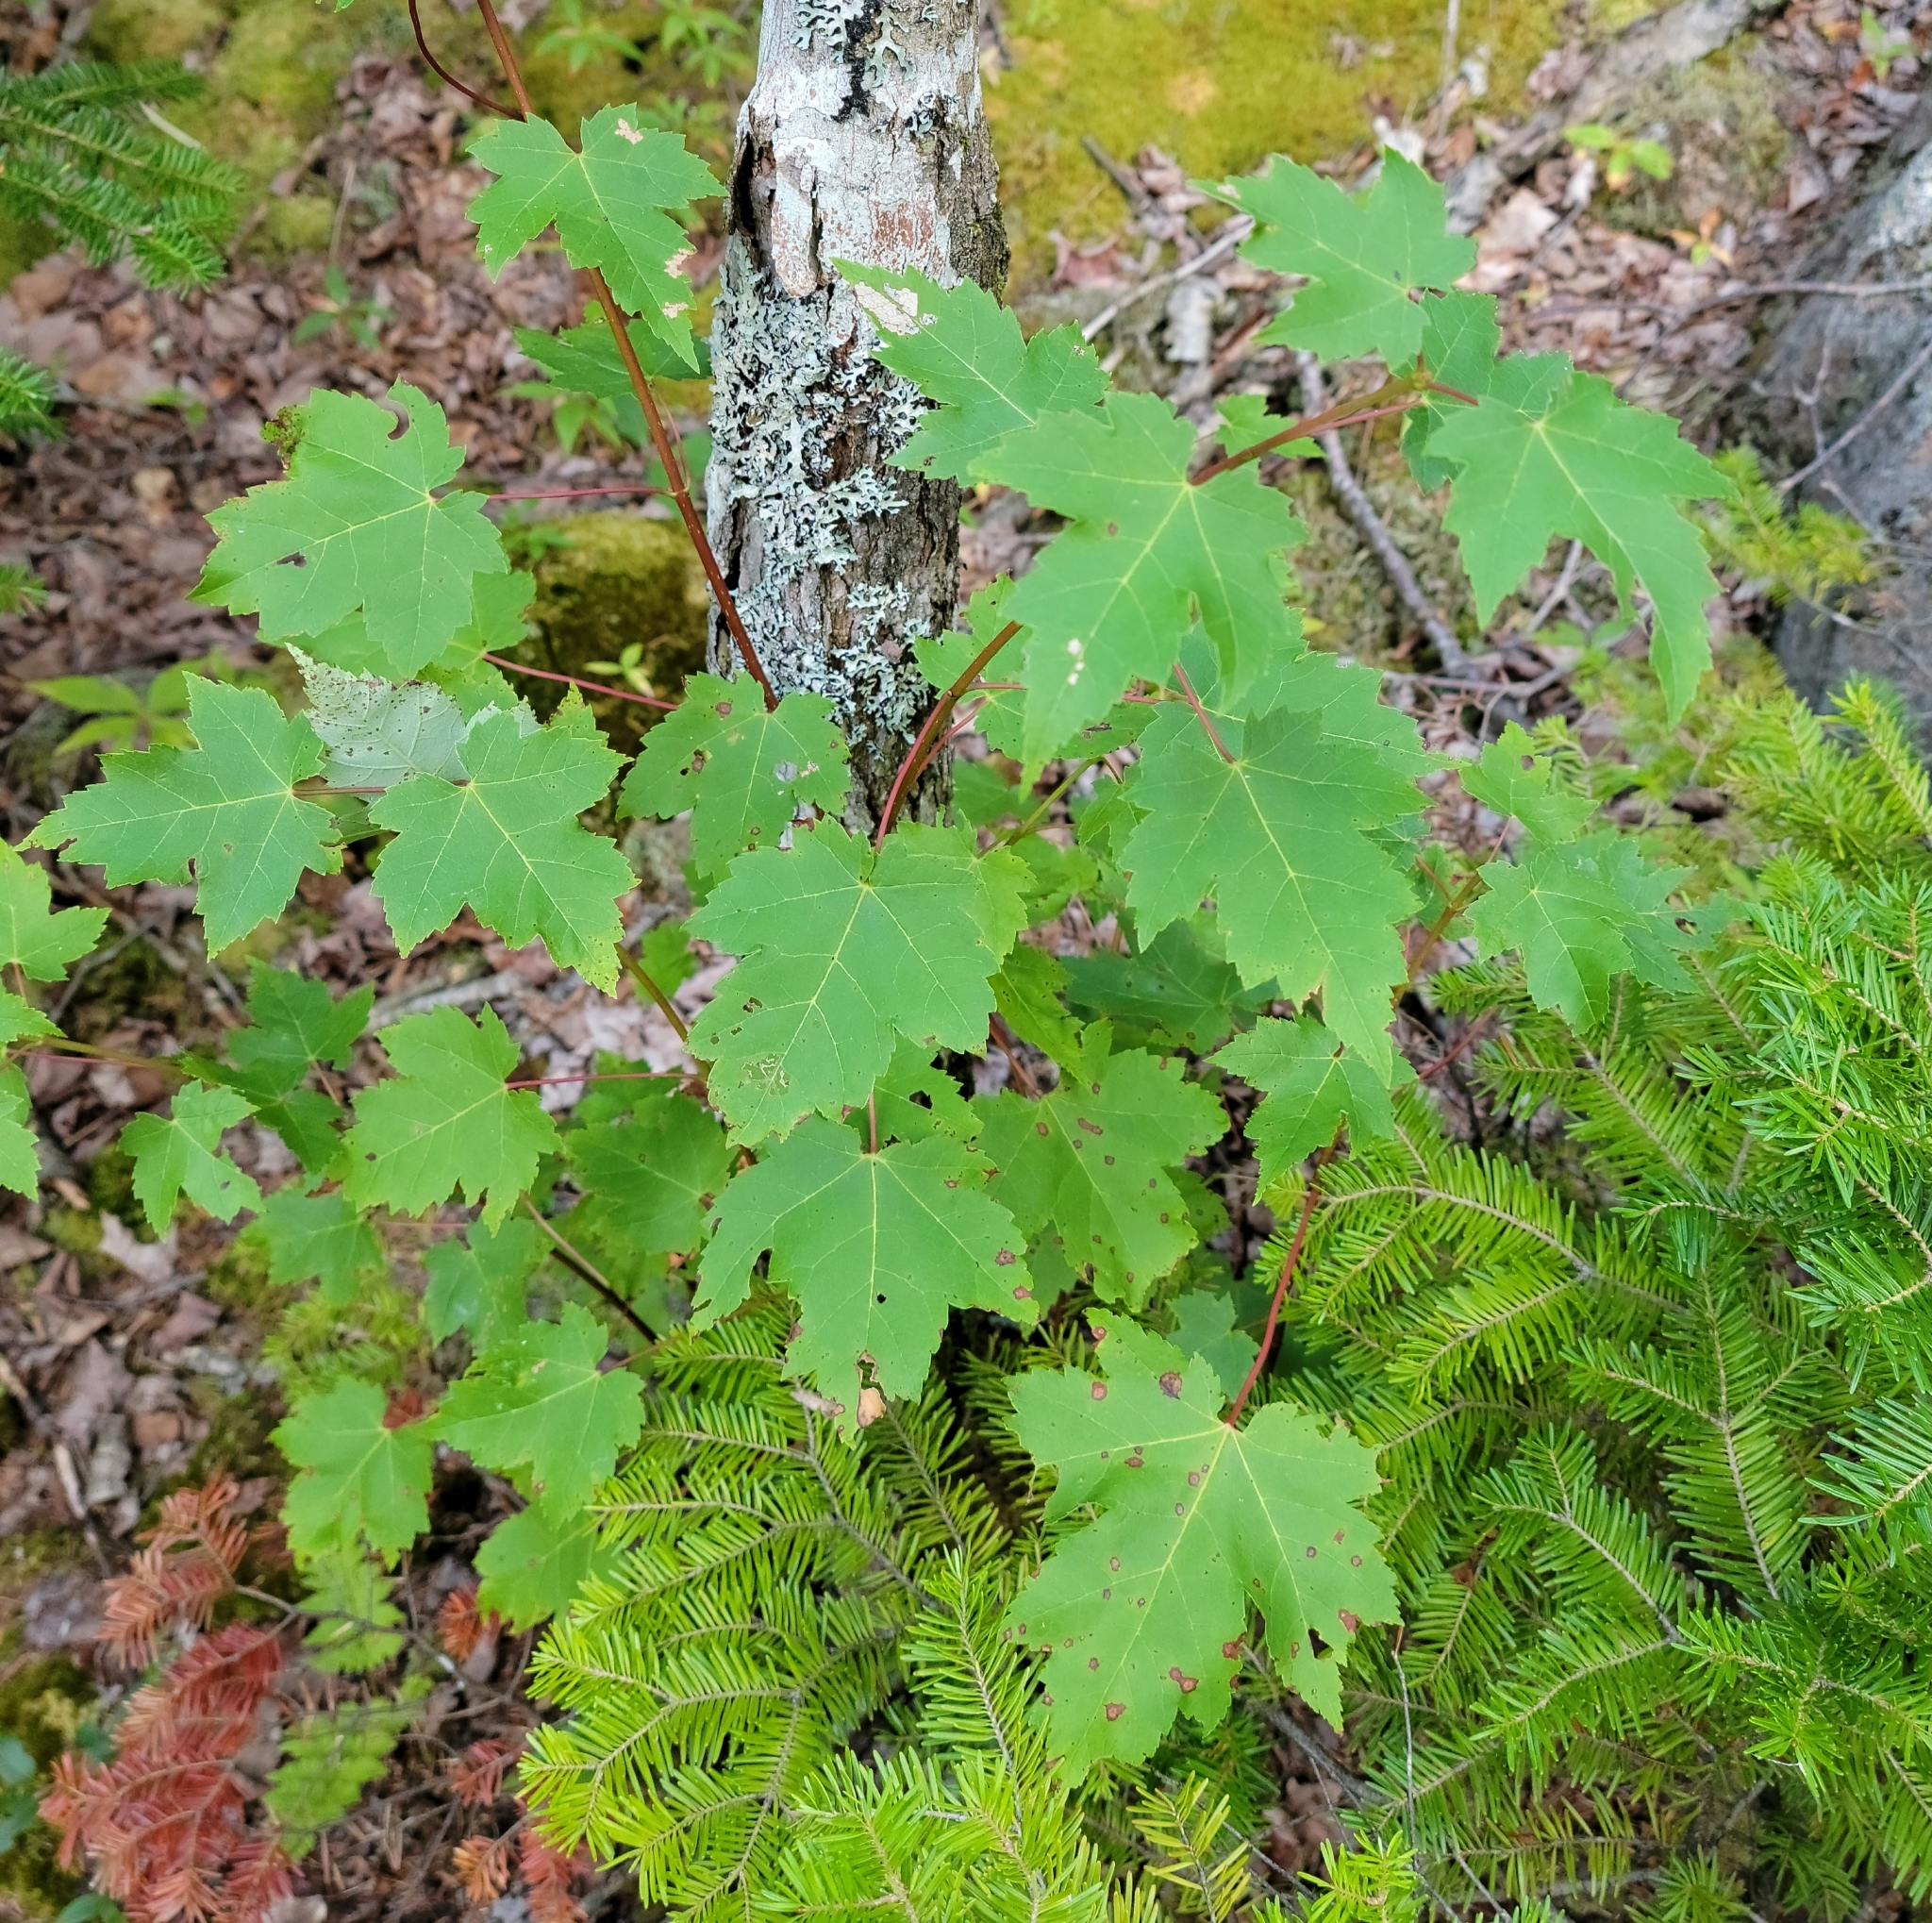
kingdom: Plantae
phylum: Tracheophyta
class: Magnoliopsida
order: Sapindales
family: Sapindaceae
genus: Acer
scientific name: Acer rubrum
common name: Red maple
